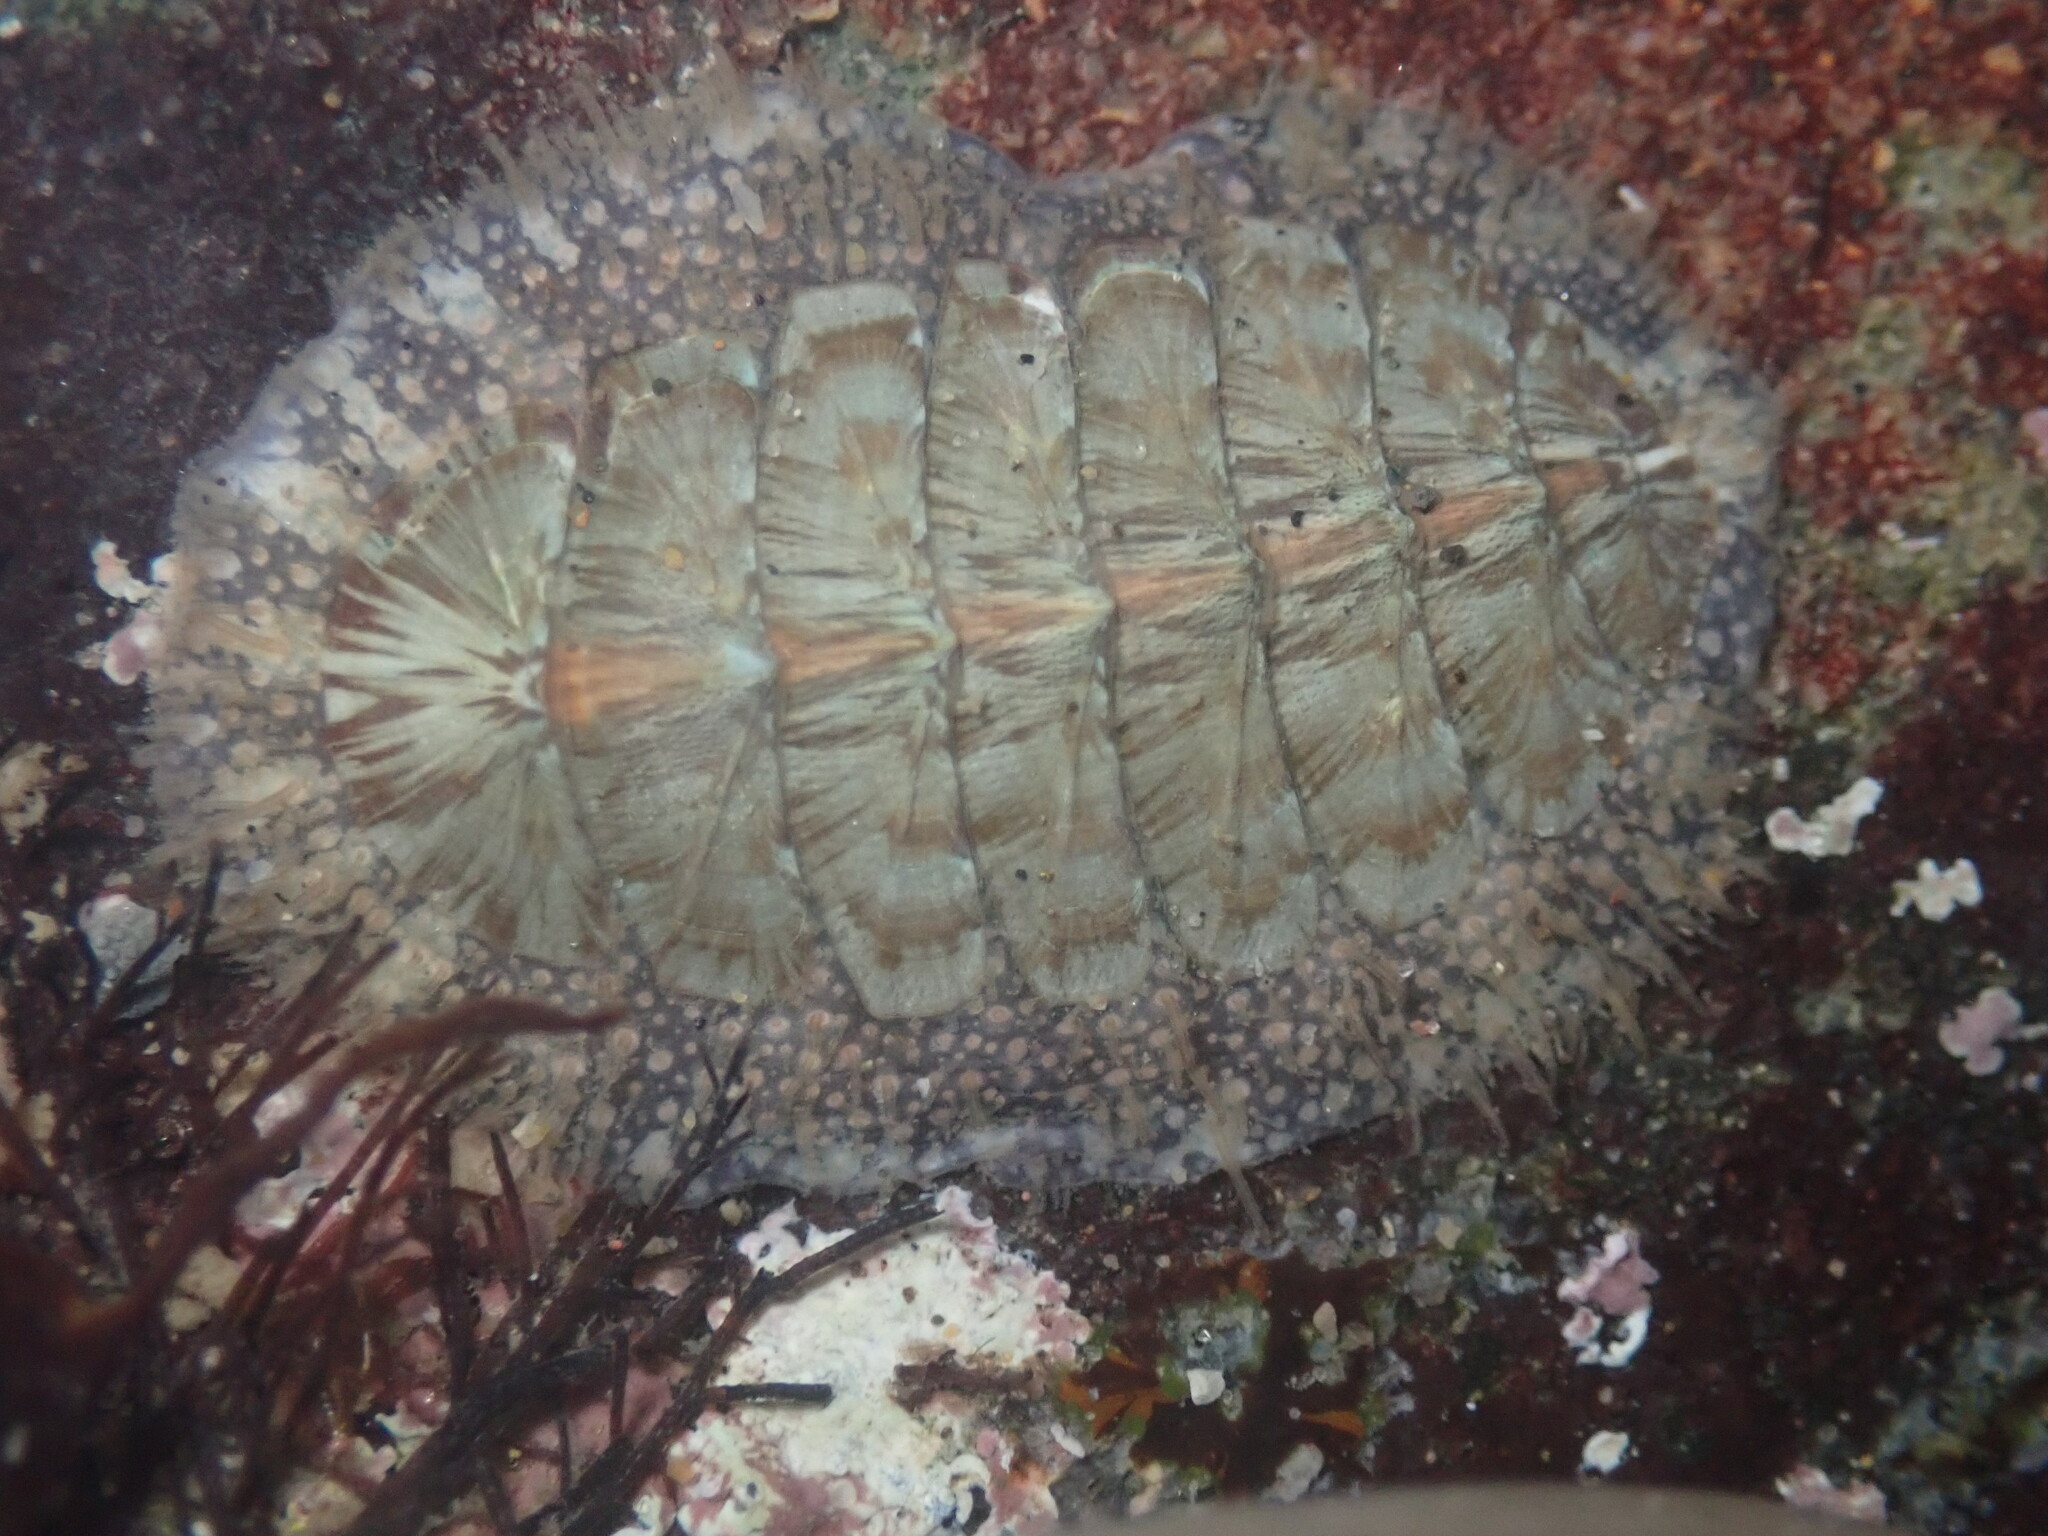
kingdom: Animalia
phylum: Mollusca
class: Polyplacophora
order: Chitonida
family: Mopaliidae
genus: Mopalia
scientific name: Mopalia lignosa
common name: Woody chiton
